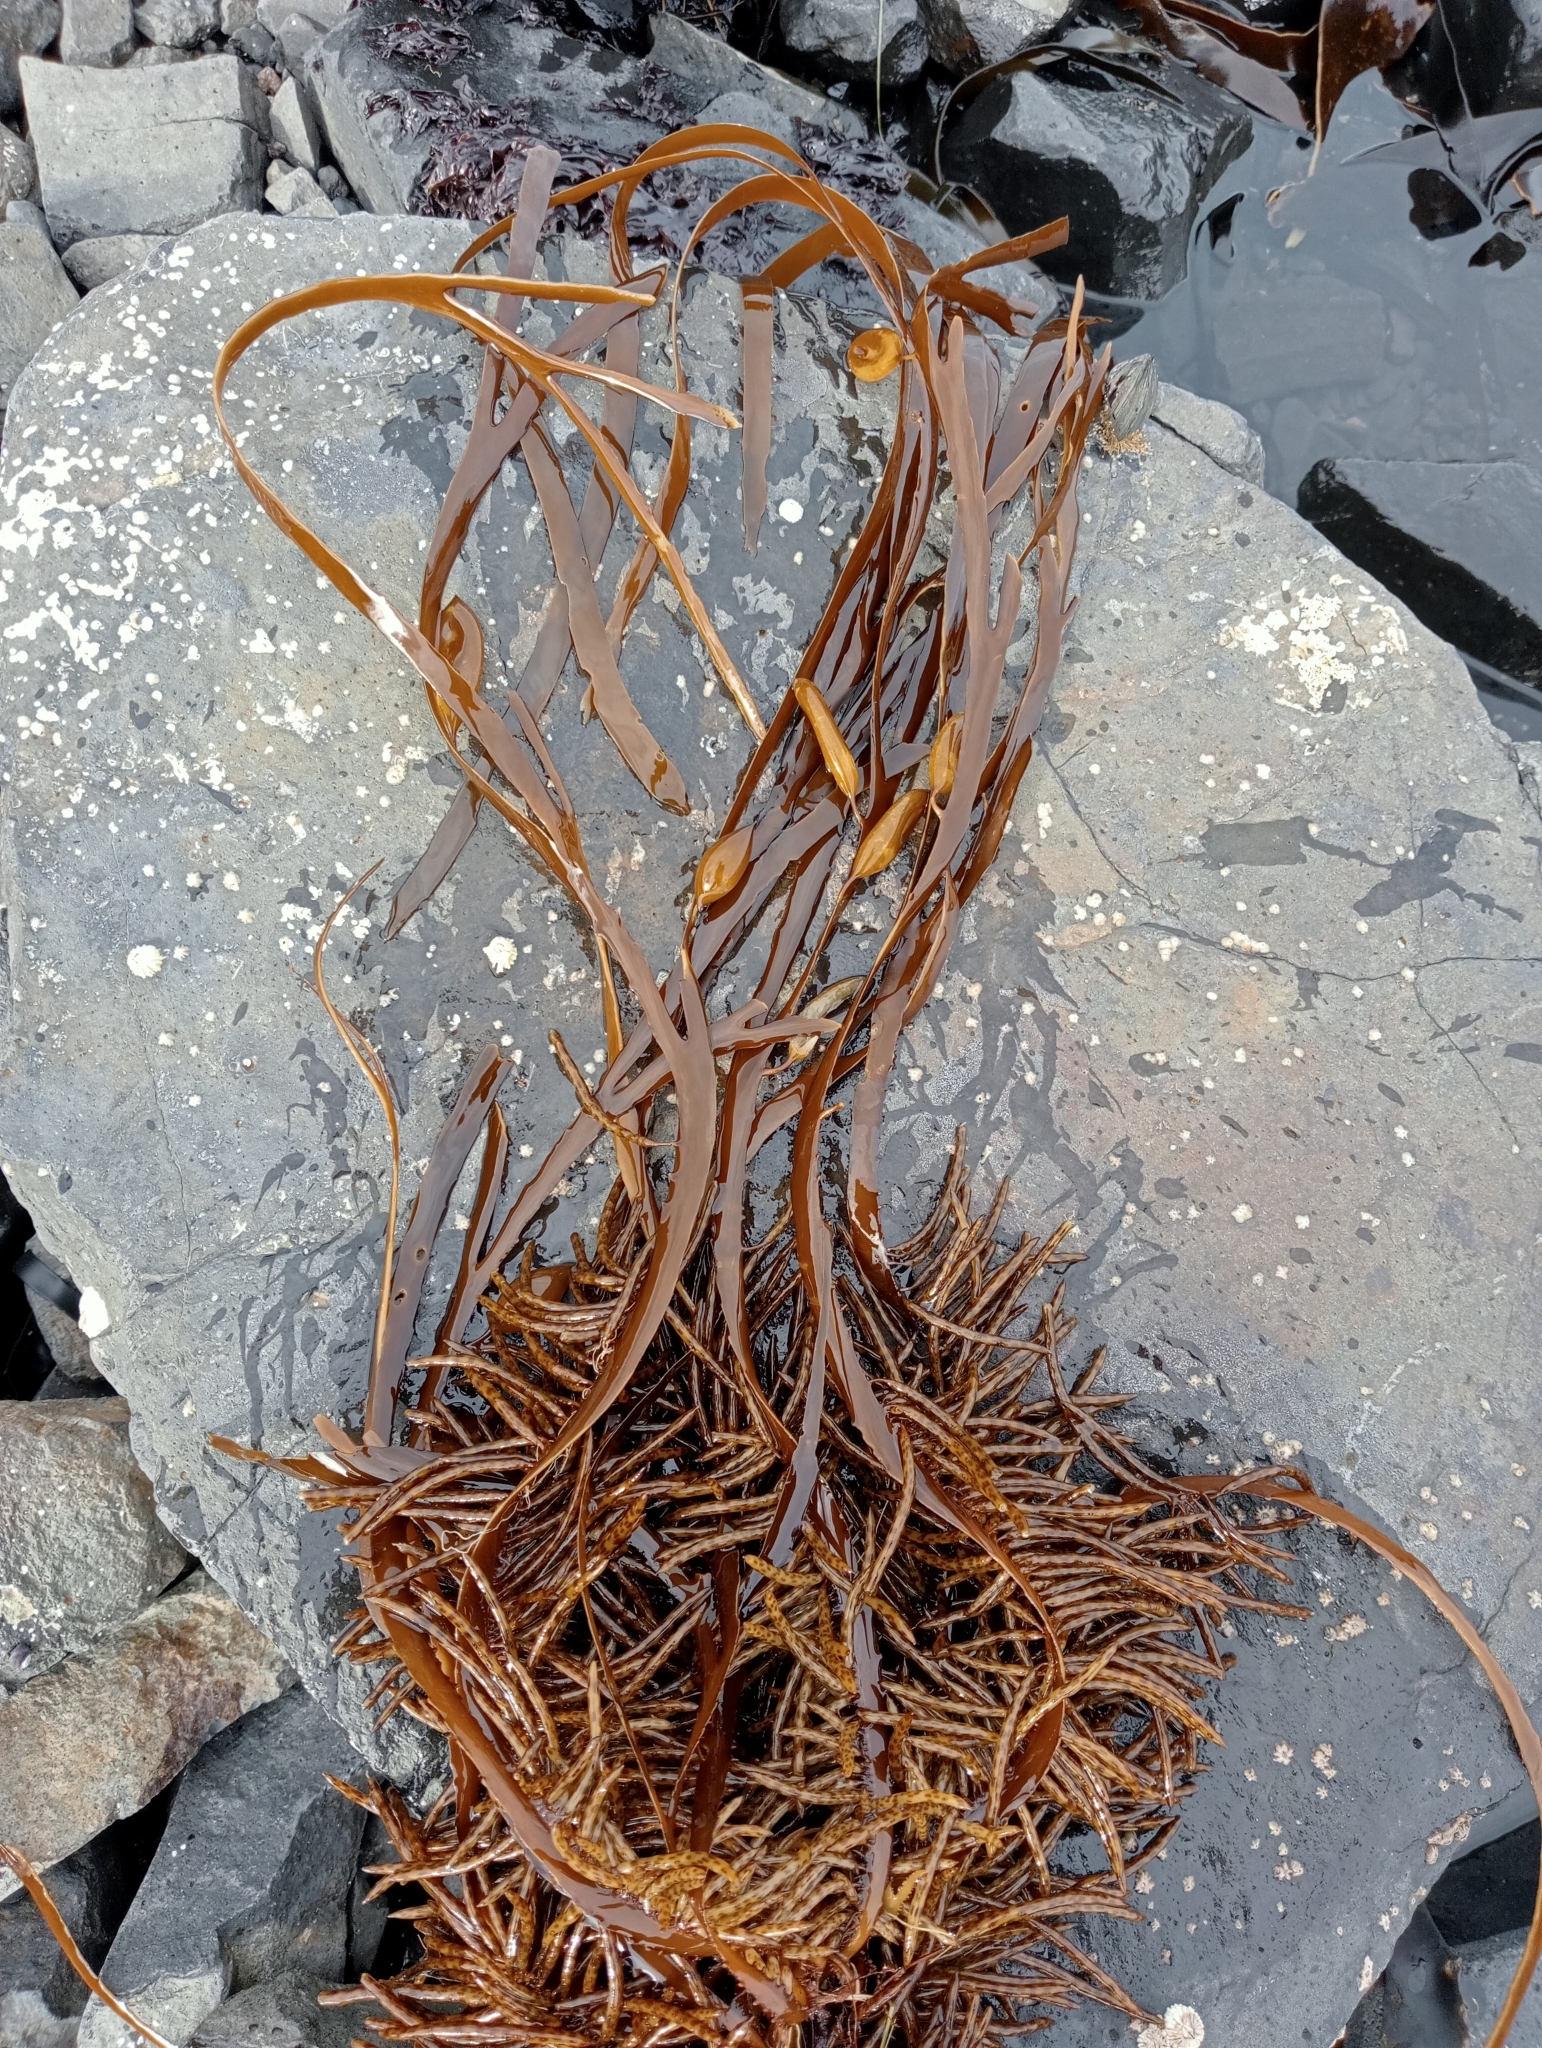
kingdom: Chromista
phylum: Ochrophyta
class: Phaeophyceae
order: Fucales
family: Seirococcaceae
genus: Marginariella
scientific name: Marginariella boryana
